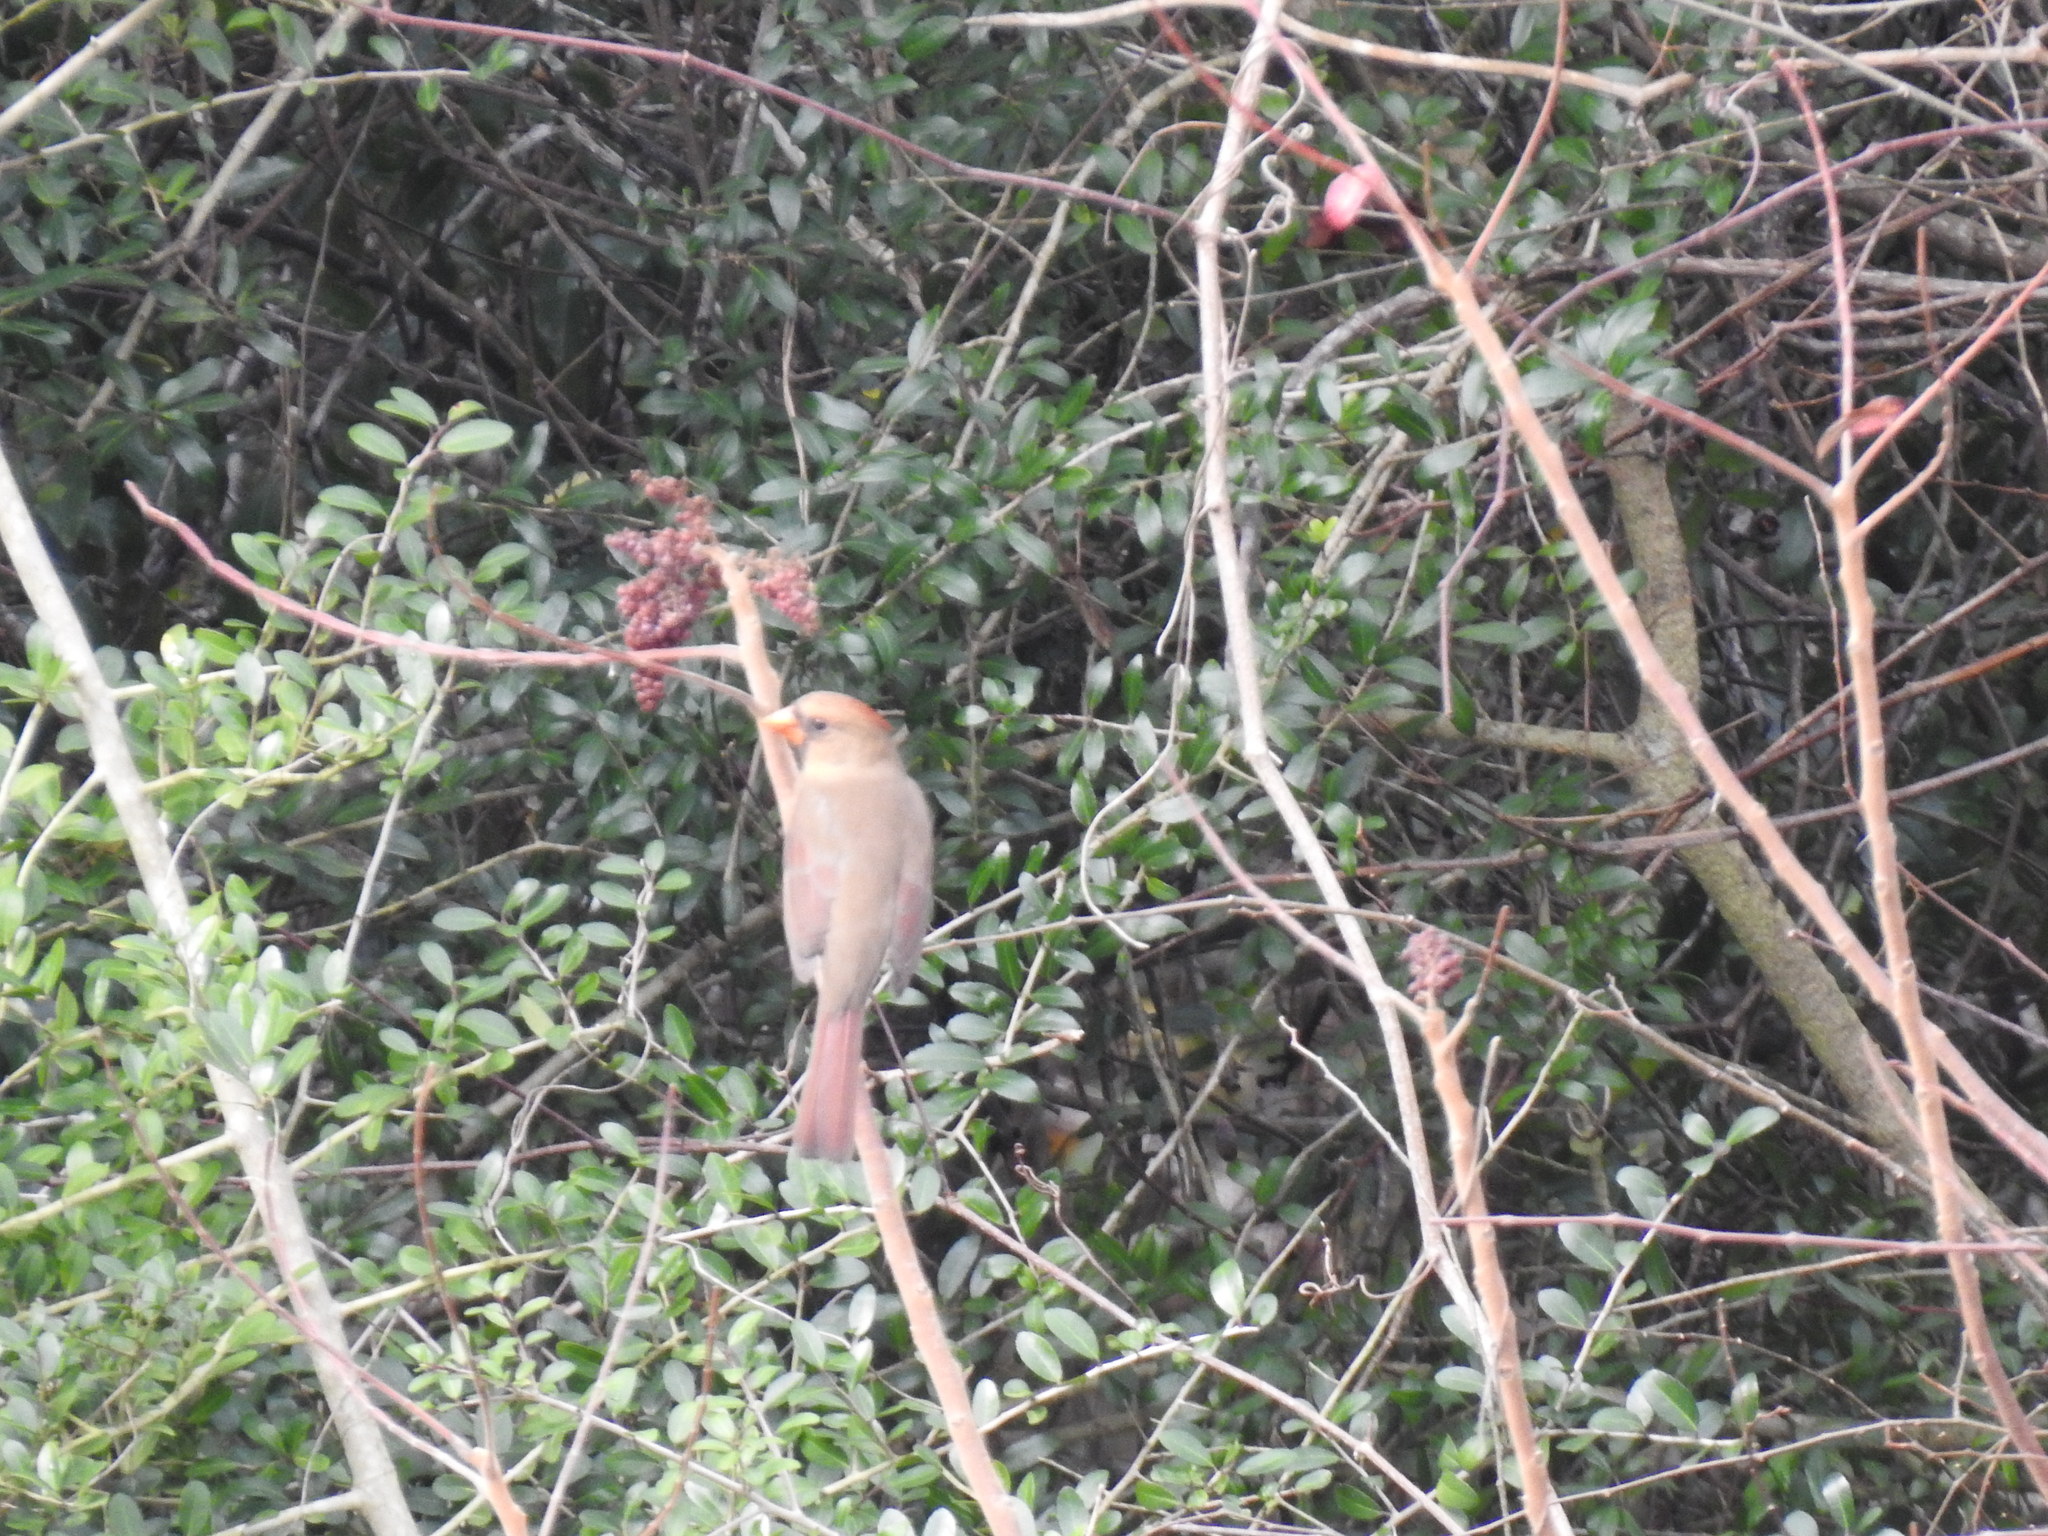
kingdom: Animalia
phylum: Chordata
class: Aves
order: Passeriformes
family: Cardinalidae
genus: Cardinalis
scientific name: Cardinalis cardinalis
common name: Northern cardinal
